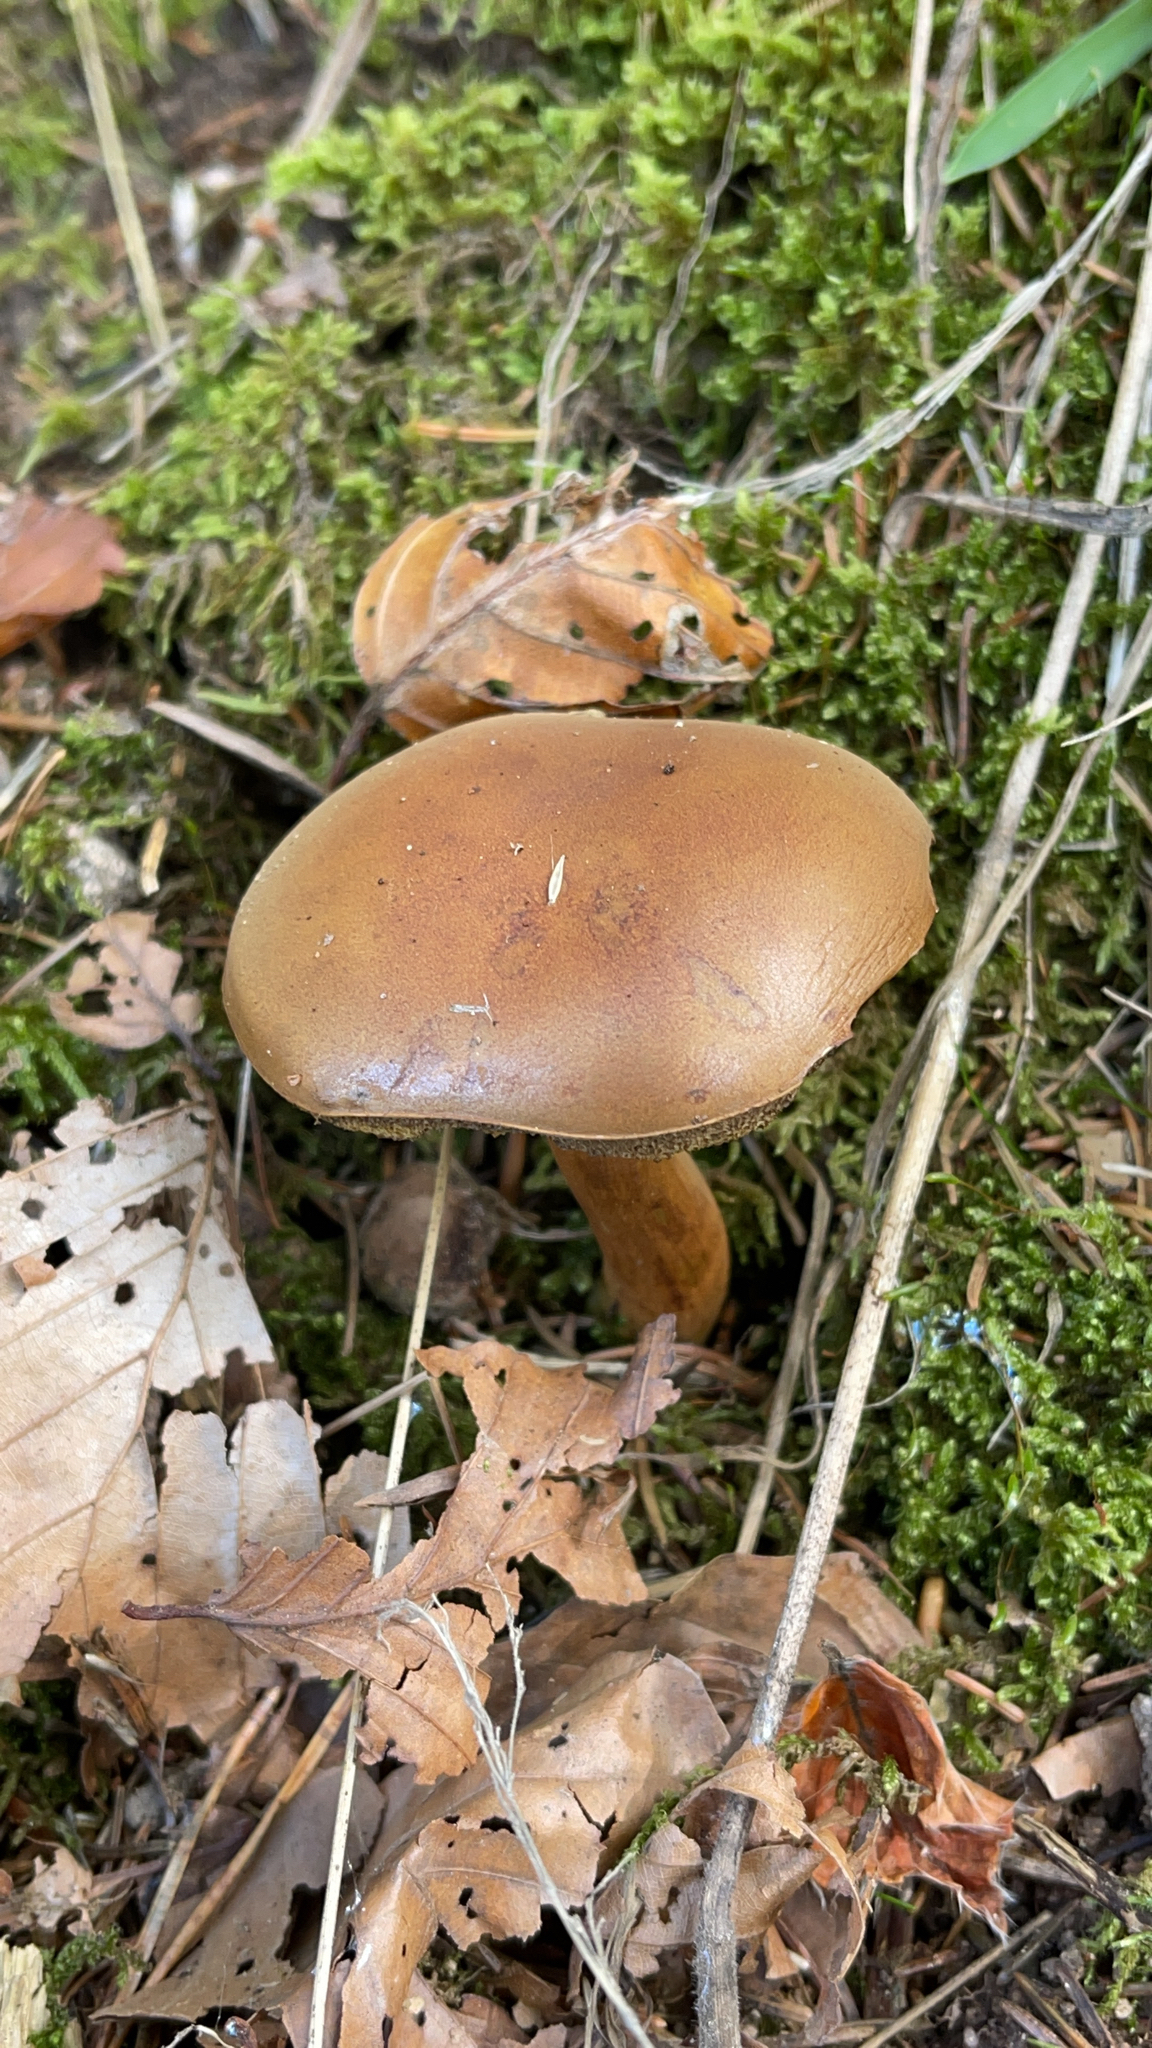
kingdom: Fungi
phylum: Basidiomycota
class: Agaricomycetes
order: Boletales
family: Boletaceae
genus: Imleria
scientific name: Imleria badia
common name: Bay bolete
